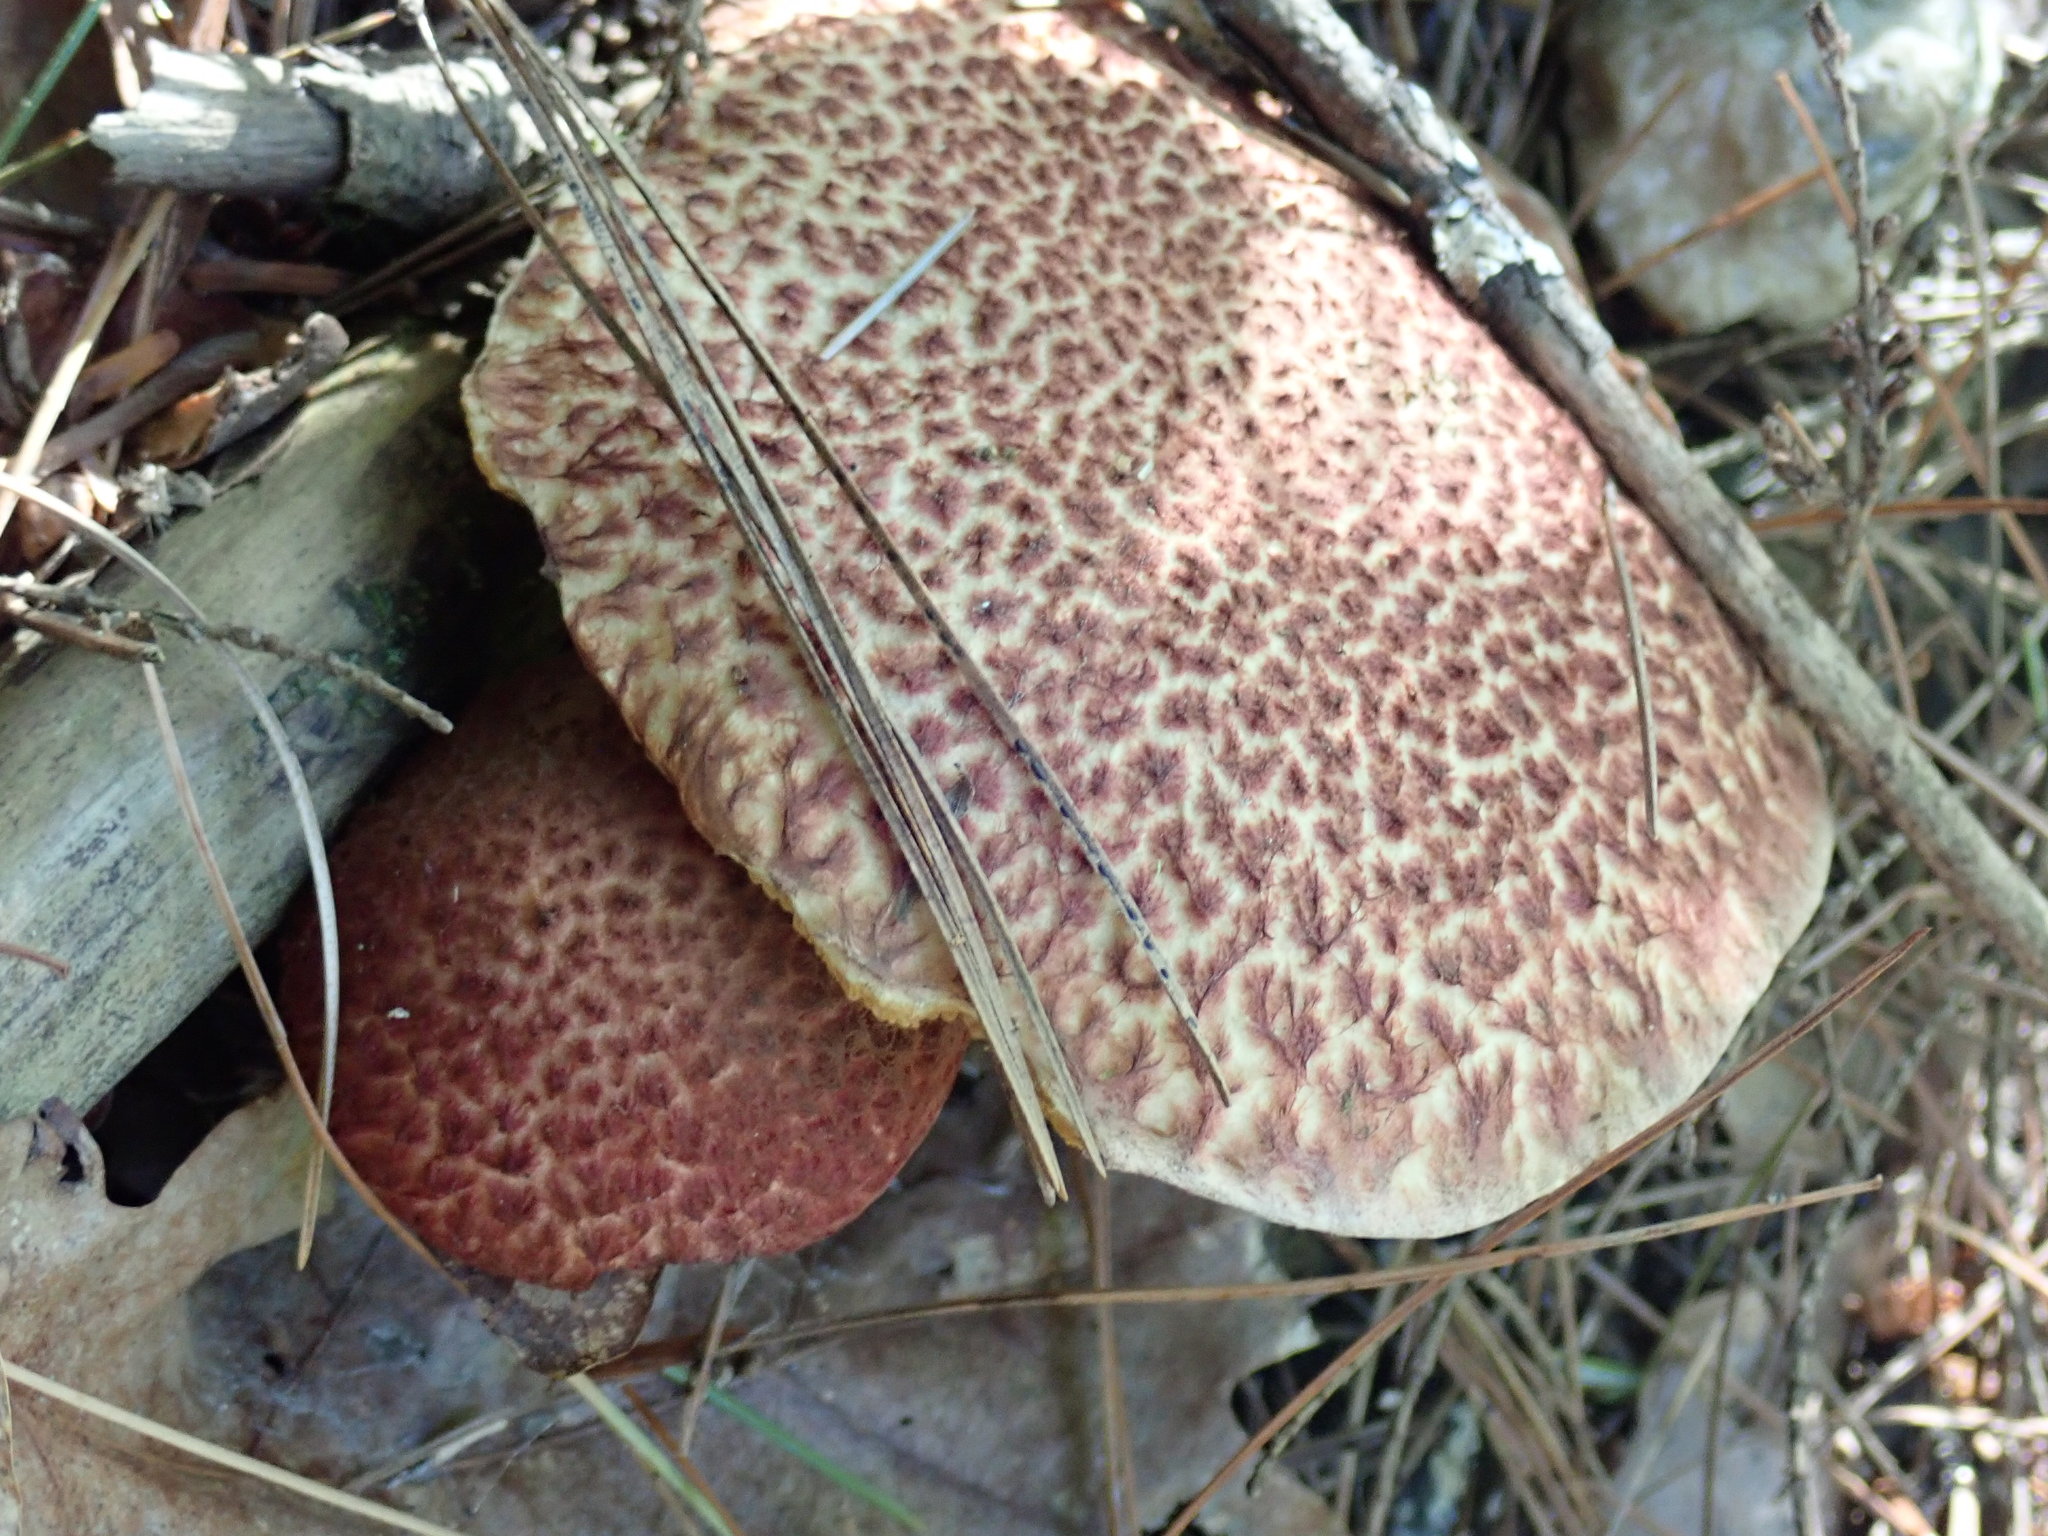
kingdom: Fungi
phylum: Basidiomycota
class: Agaricomycetes
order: Boletales
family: Suillaceae
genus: Suillus
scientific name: Suillus spraguei
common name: Painted suillus
